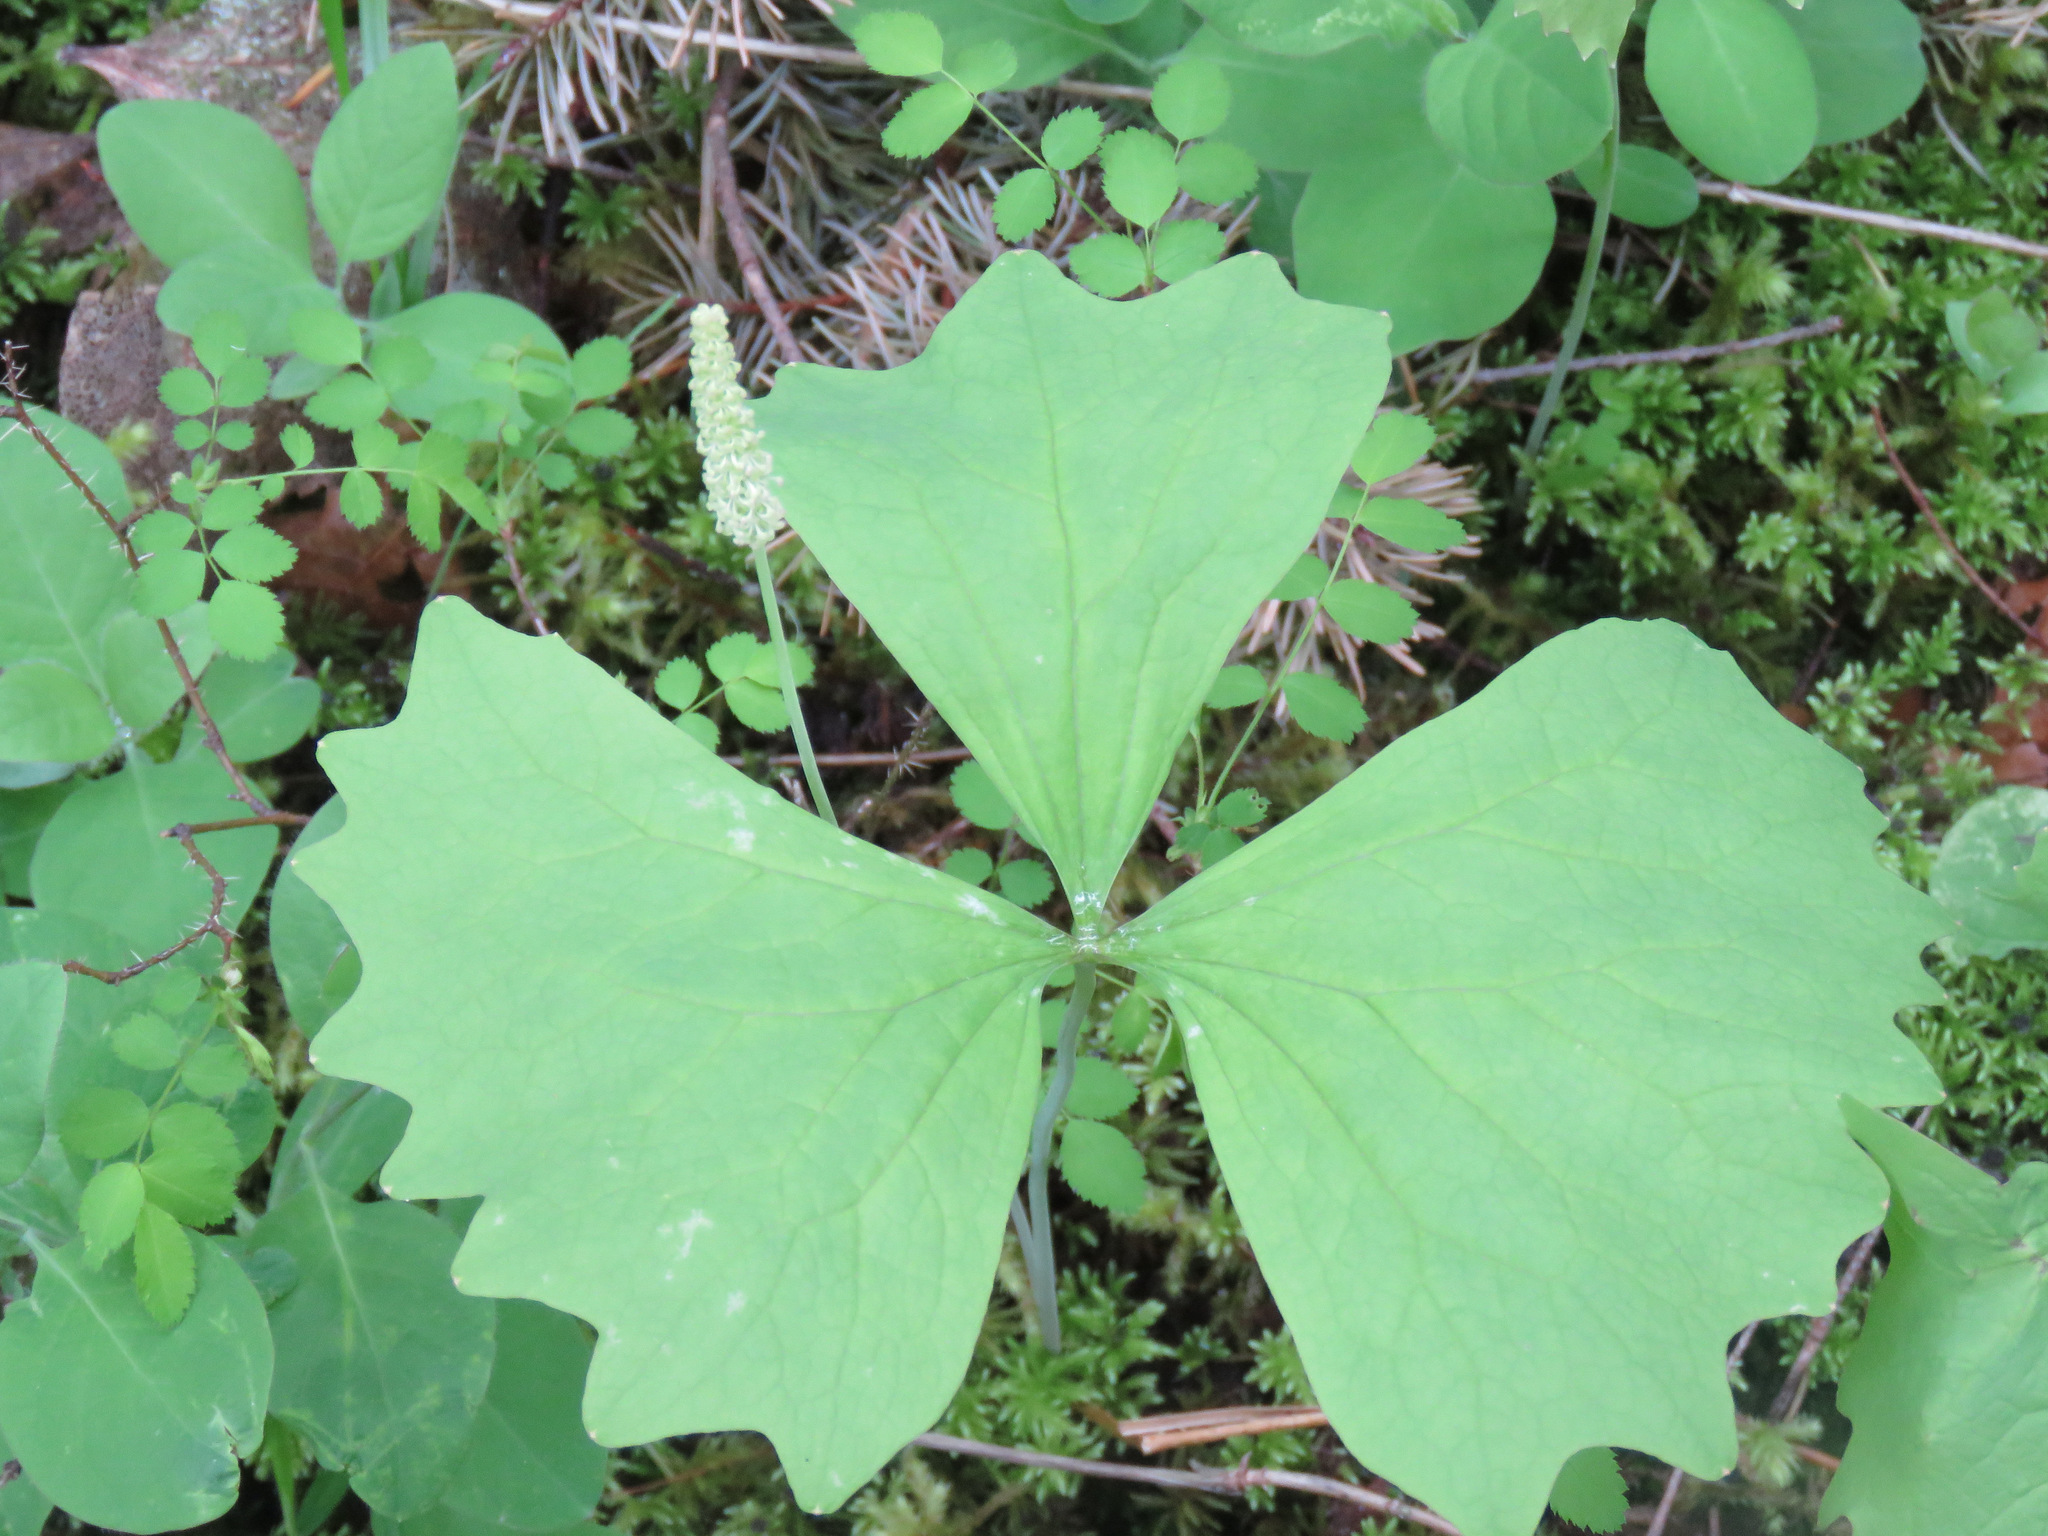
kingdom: Plantae
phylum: Tracheophyta
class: Magnoliopsida
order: Ranunculales
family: Berberidaceae
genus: Achlys
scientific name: Achlys triphylla
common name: Vanilla-leaf
